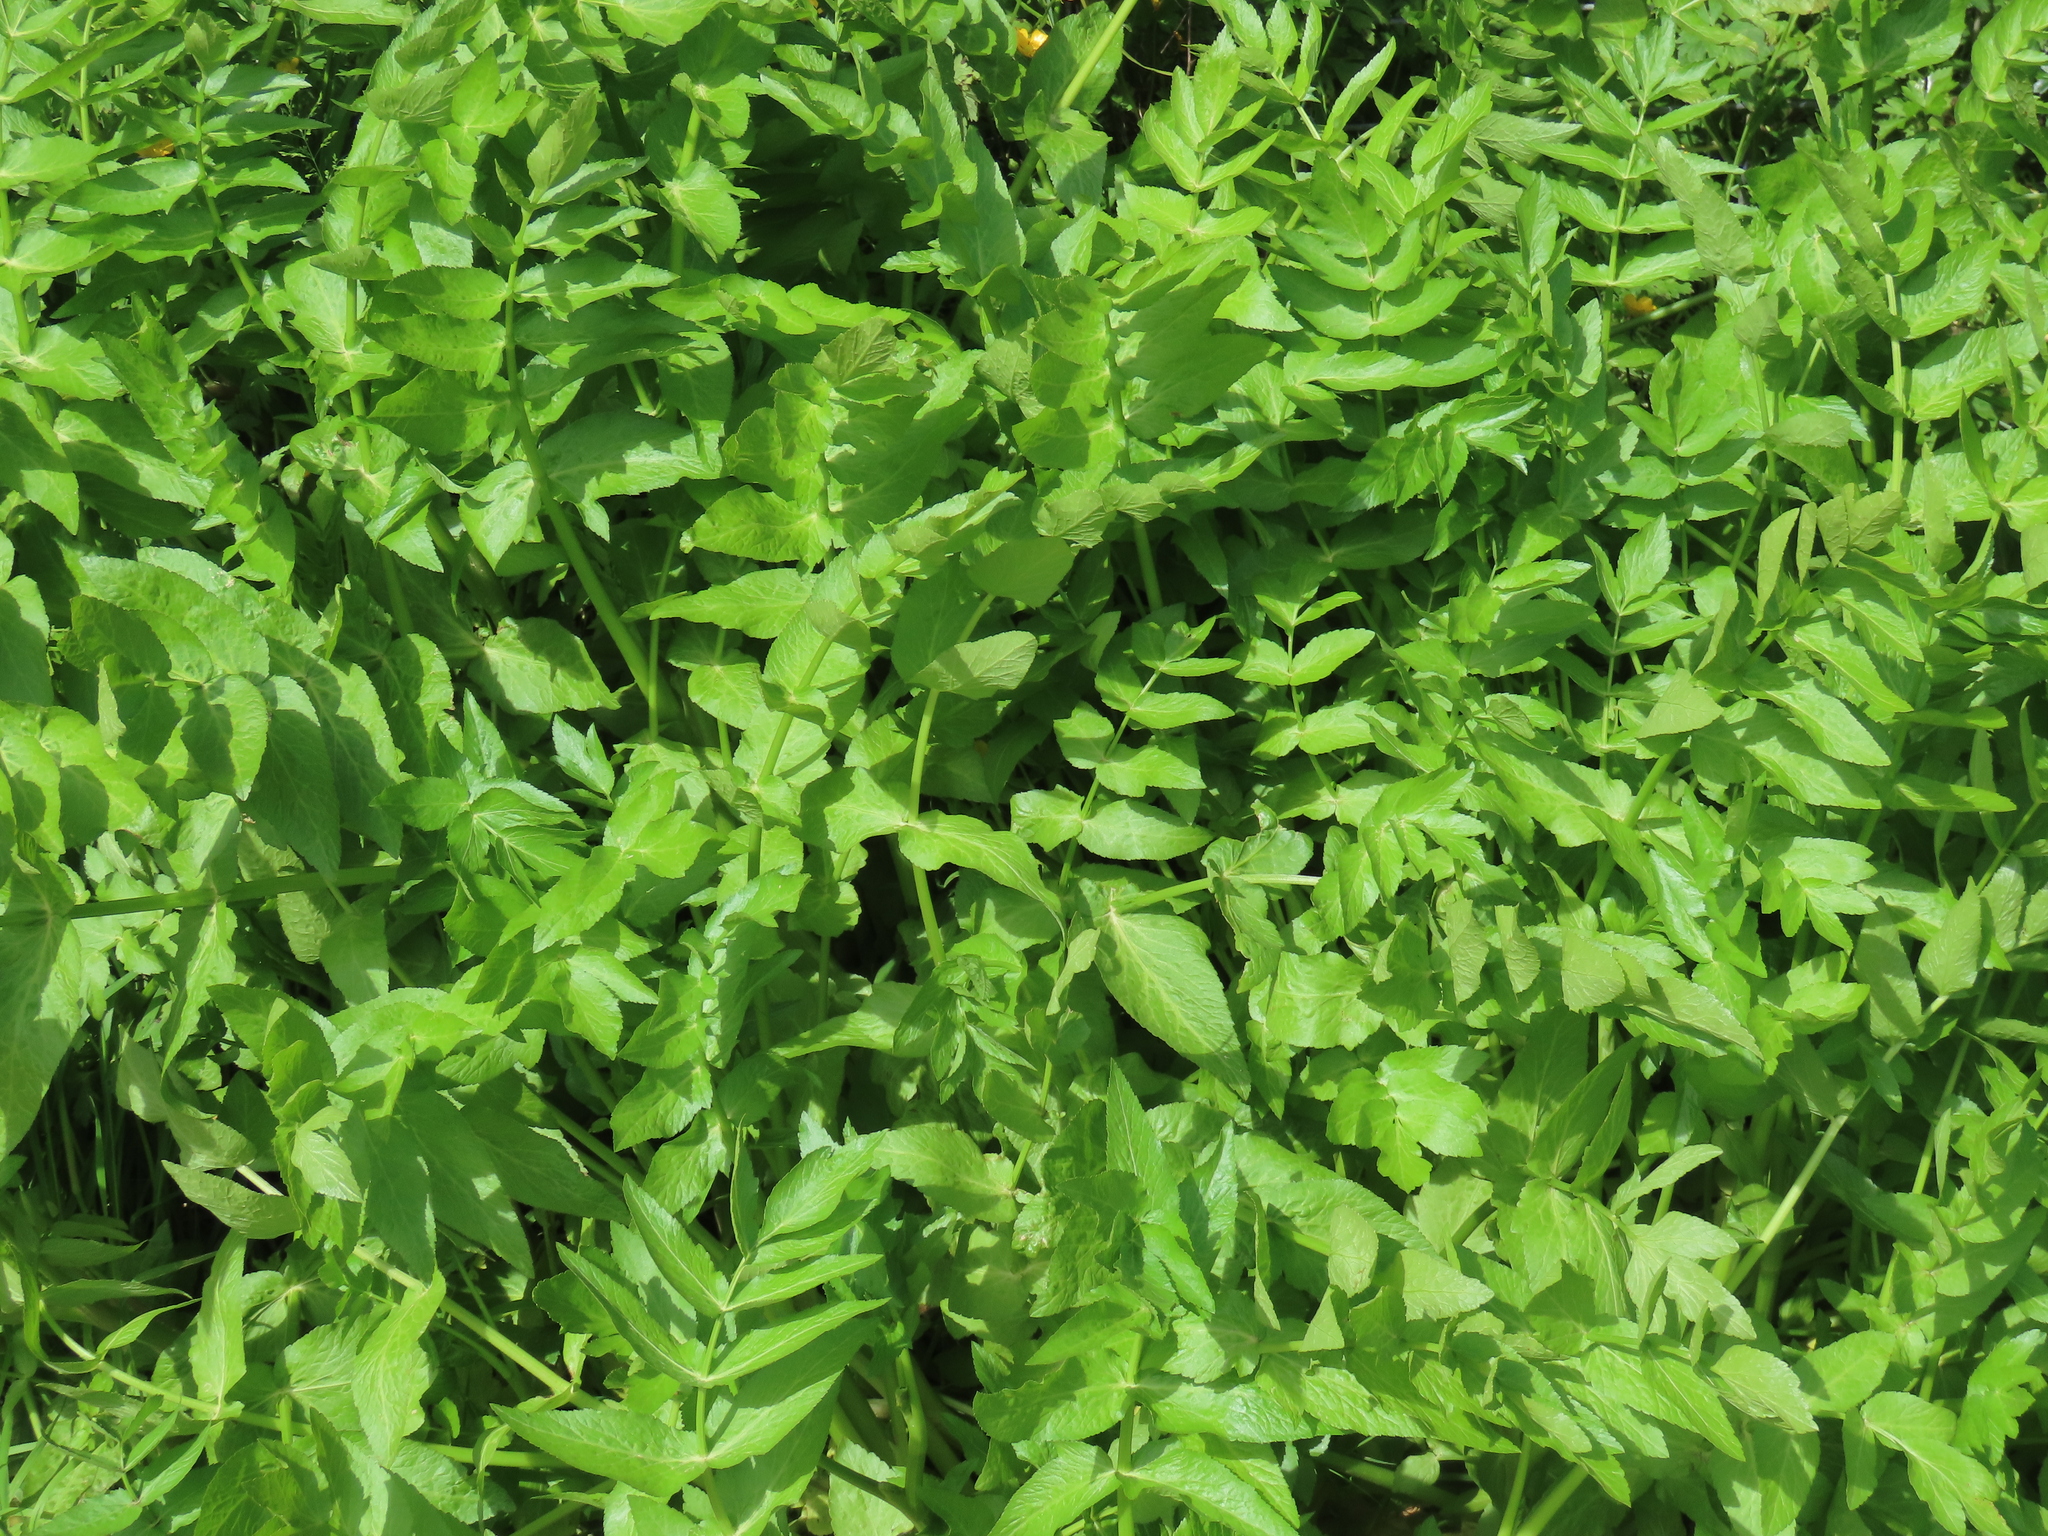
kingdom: Plantae
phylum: Tracheophyta
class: Magnoliopsida
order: Apiales
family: Apiaceae
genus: Helosciadium
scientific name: Helosciadium nodiflorum
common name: Fool's-watercress
